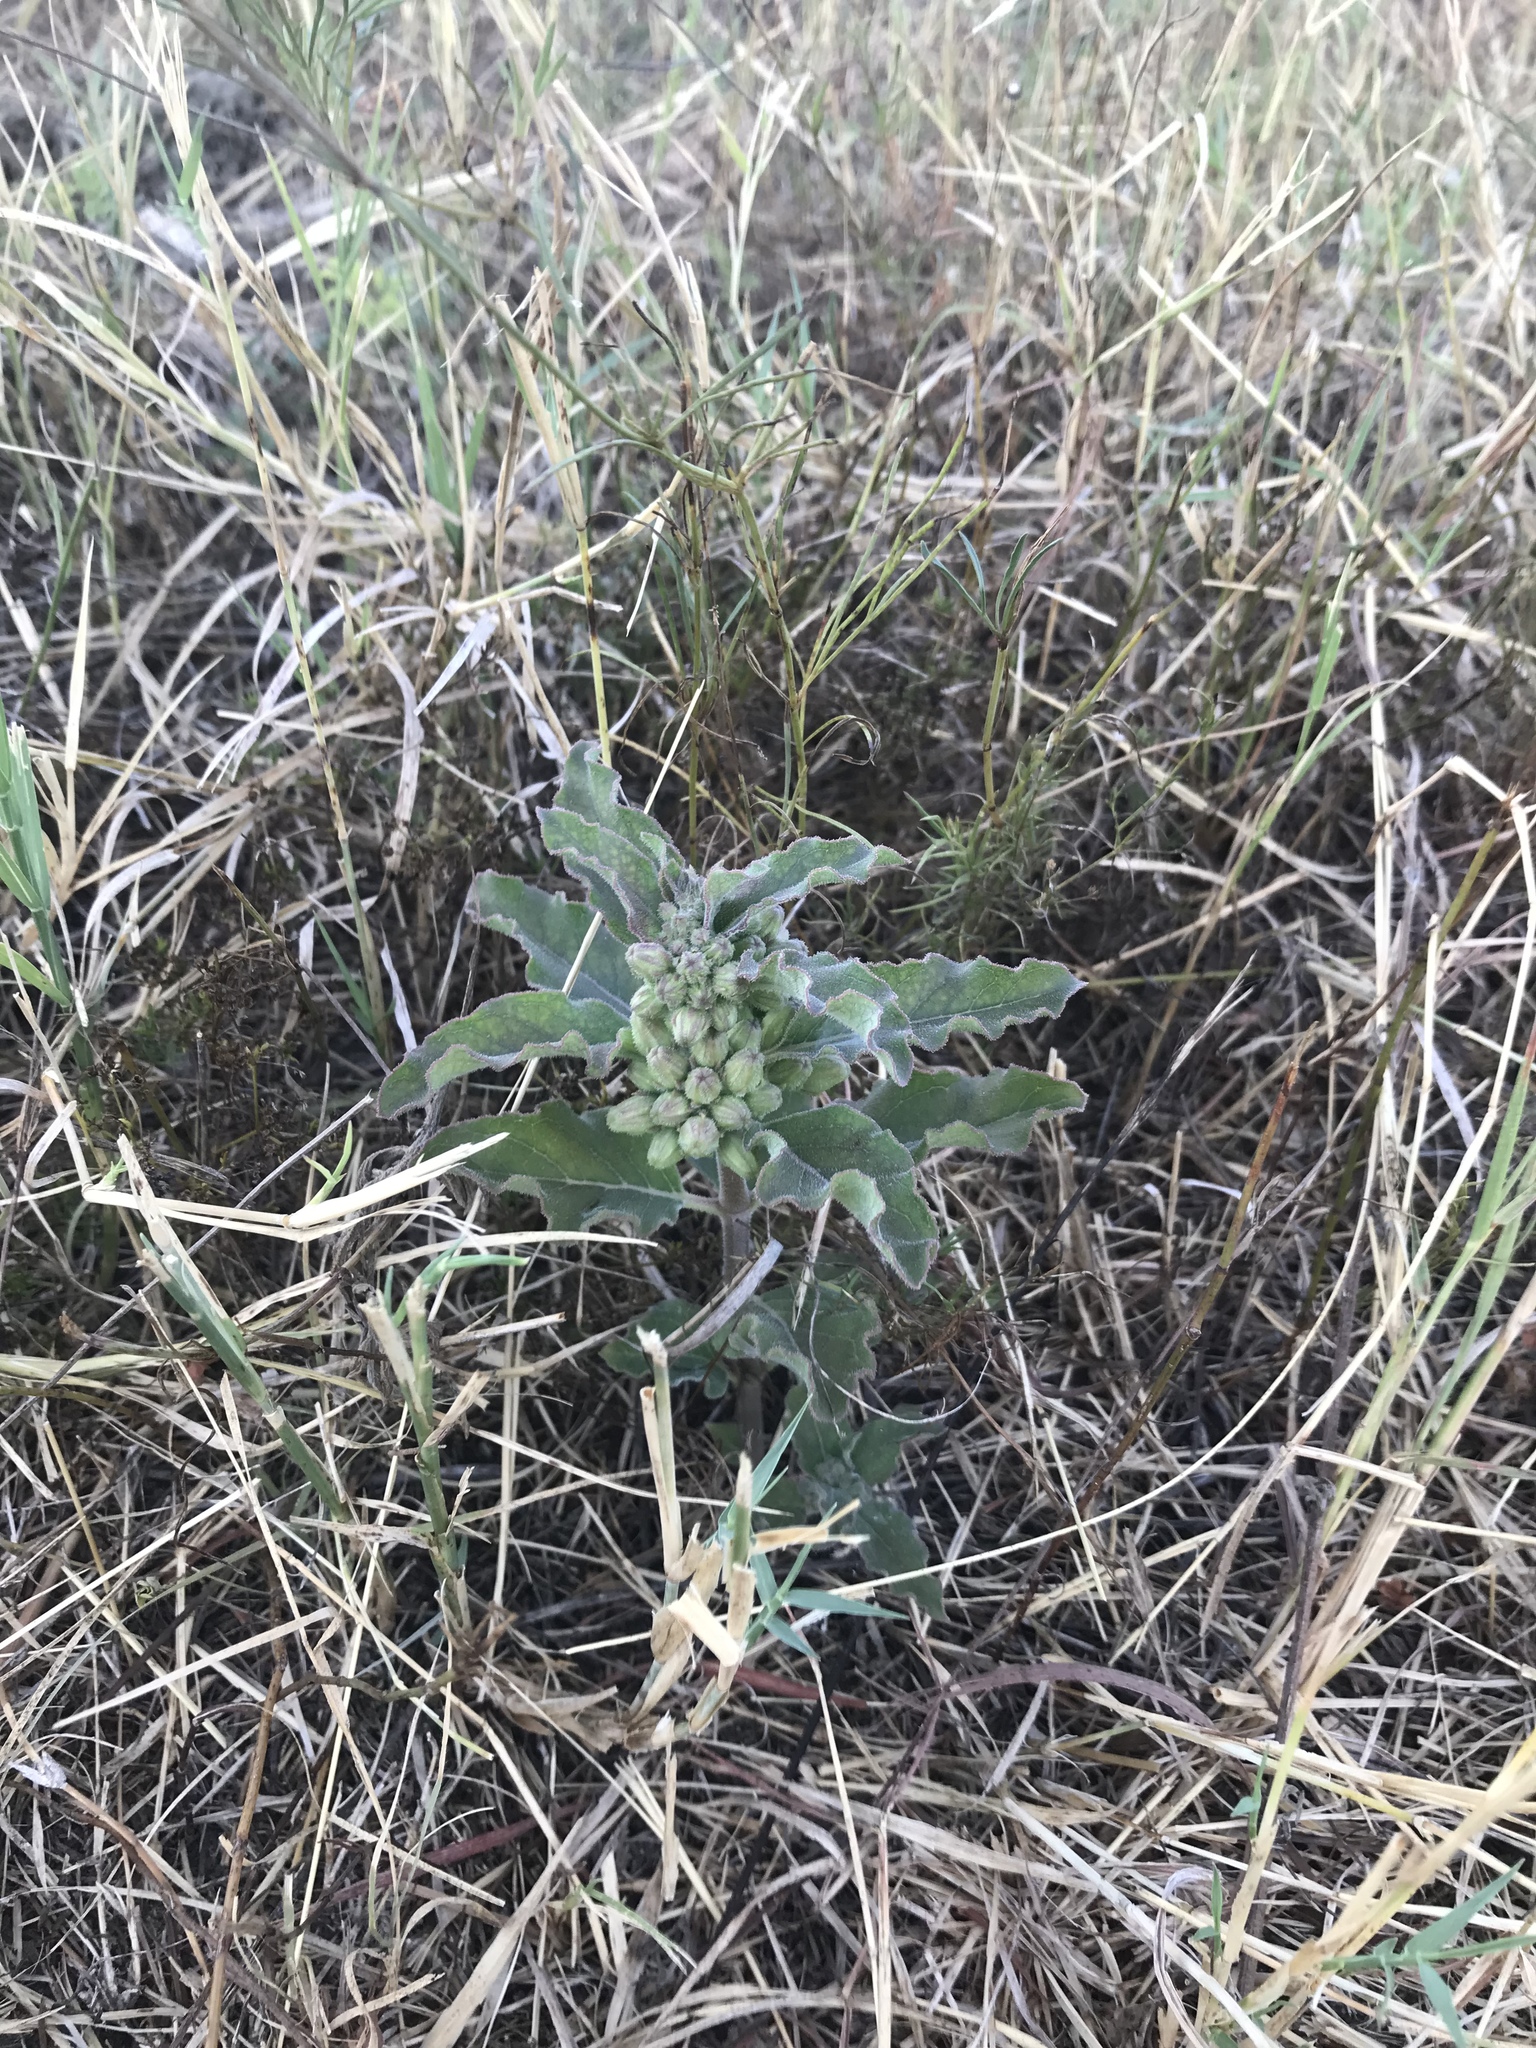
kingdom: Plantae
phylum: Tracheophyta
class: Magnoliopsida
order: Gentianales
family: Apocynaceae
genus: Asclepias
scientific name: Asclepias oenotheroides
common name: Zizotes milkweed
